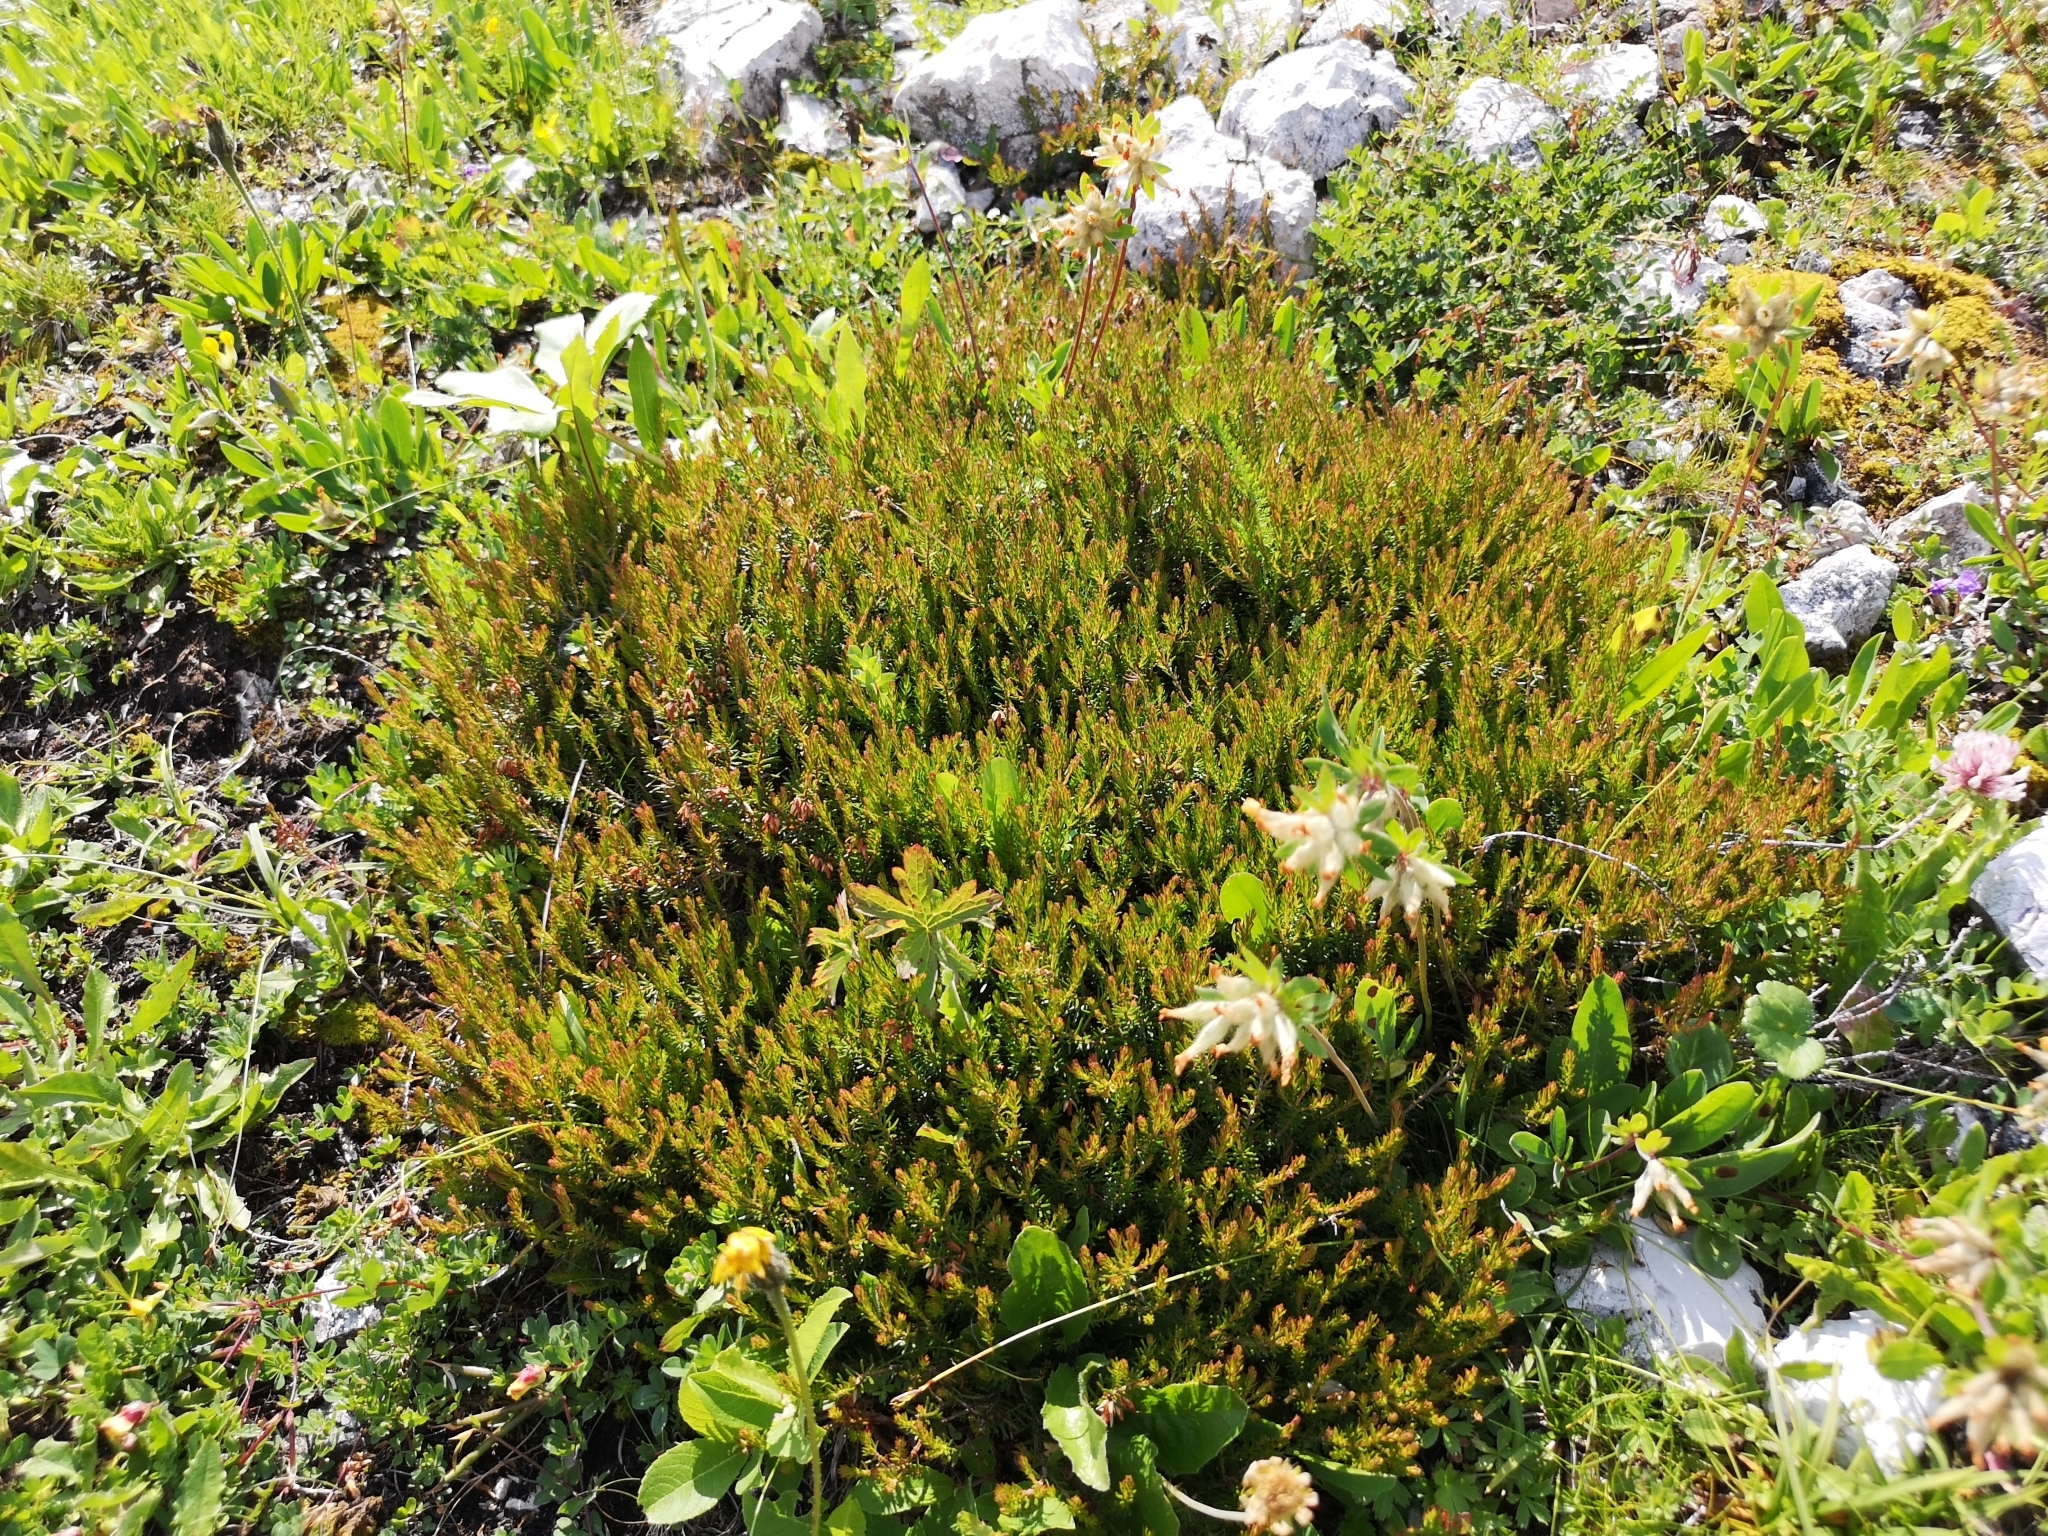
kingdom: Plantae
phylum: Tracheophyta
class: Magnoliopsida
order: Ericales
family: Ericaceae
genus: Calluna
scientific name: Calluna vulgaris
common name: Heather
